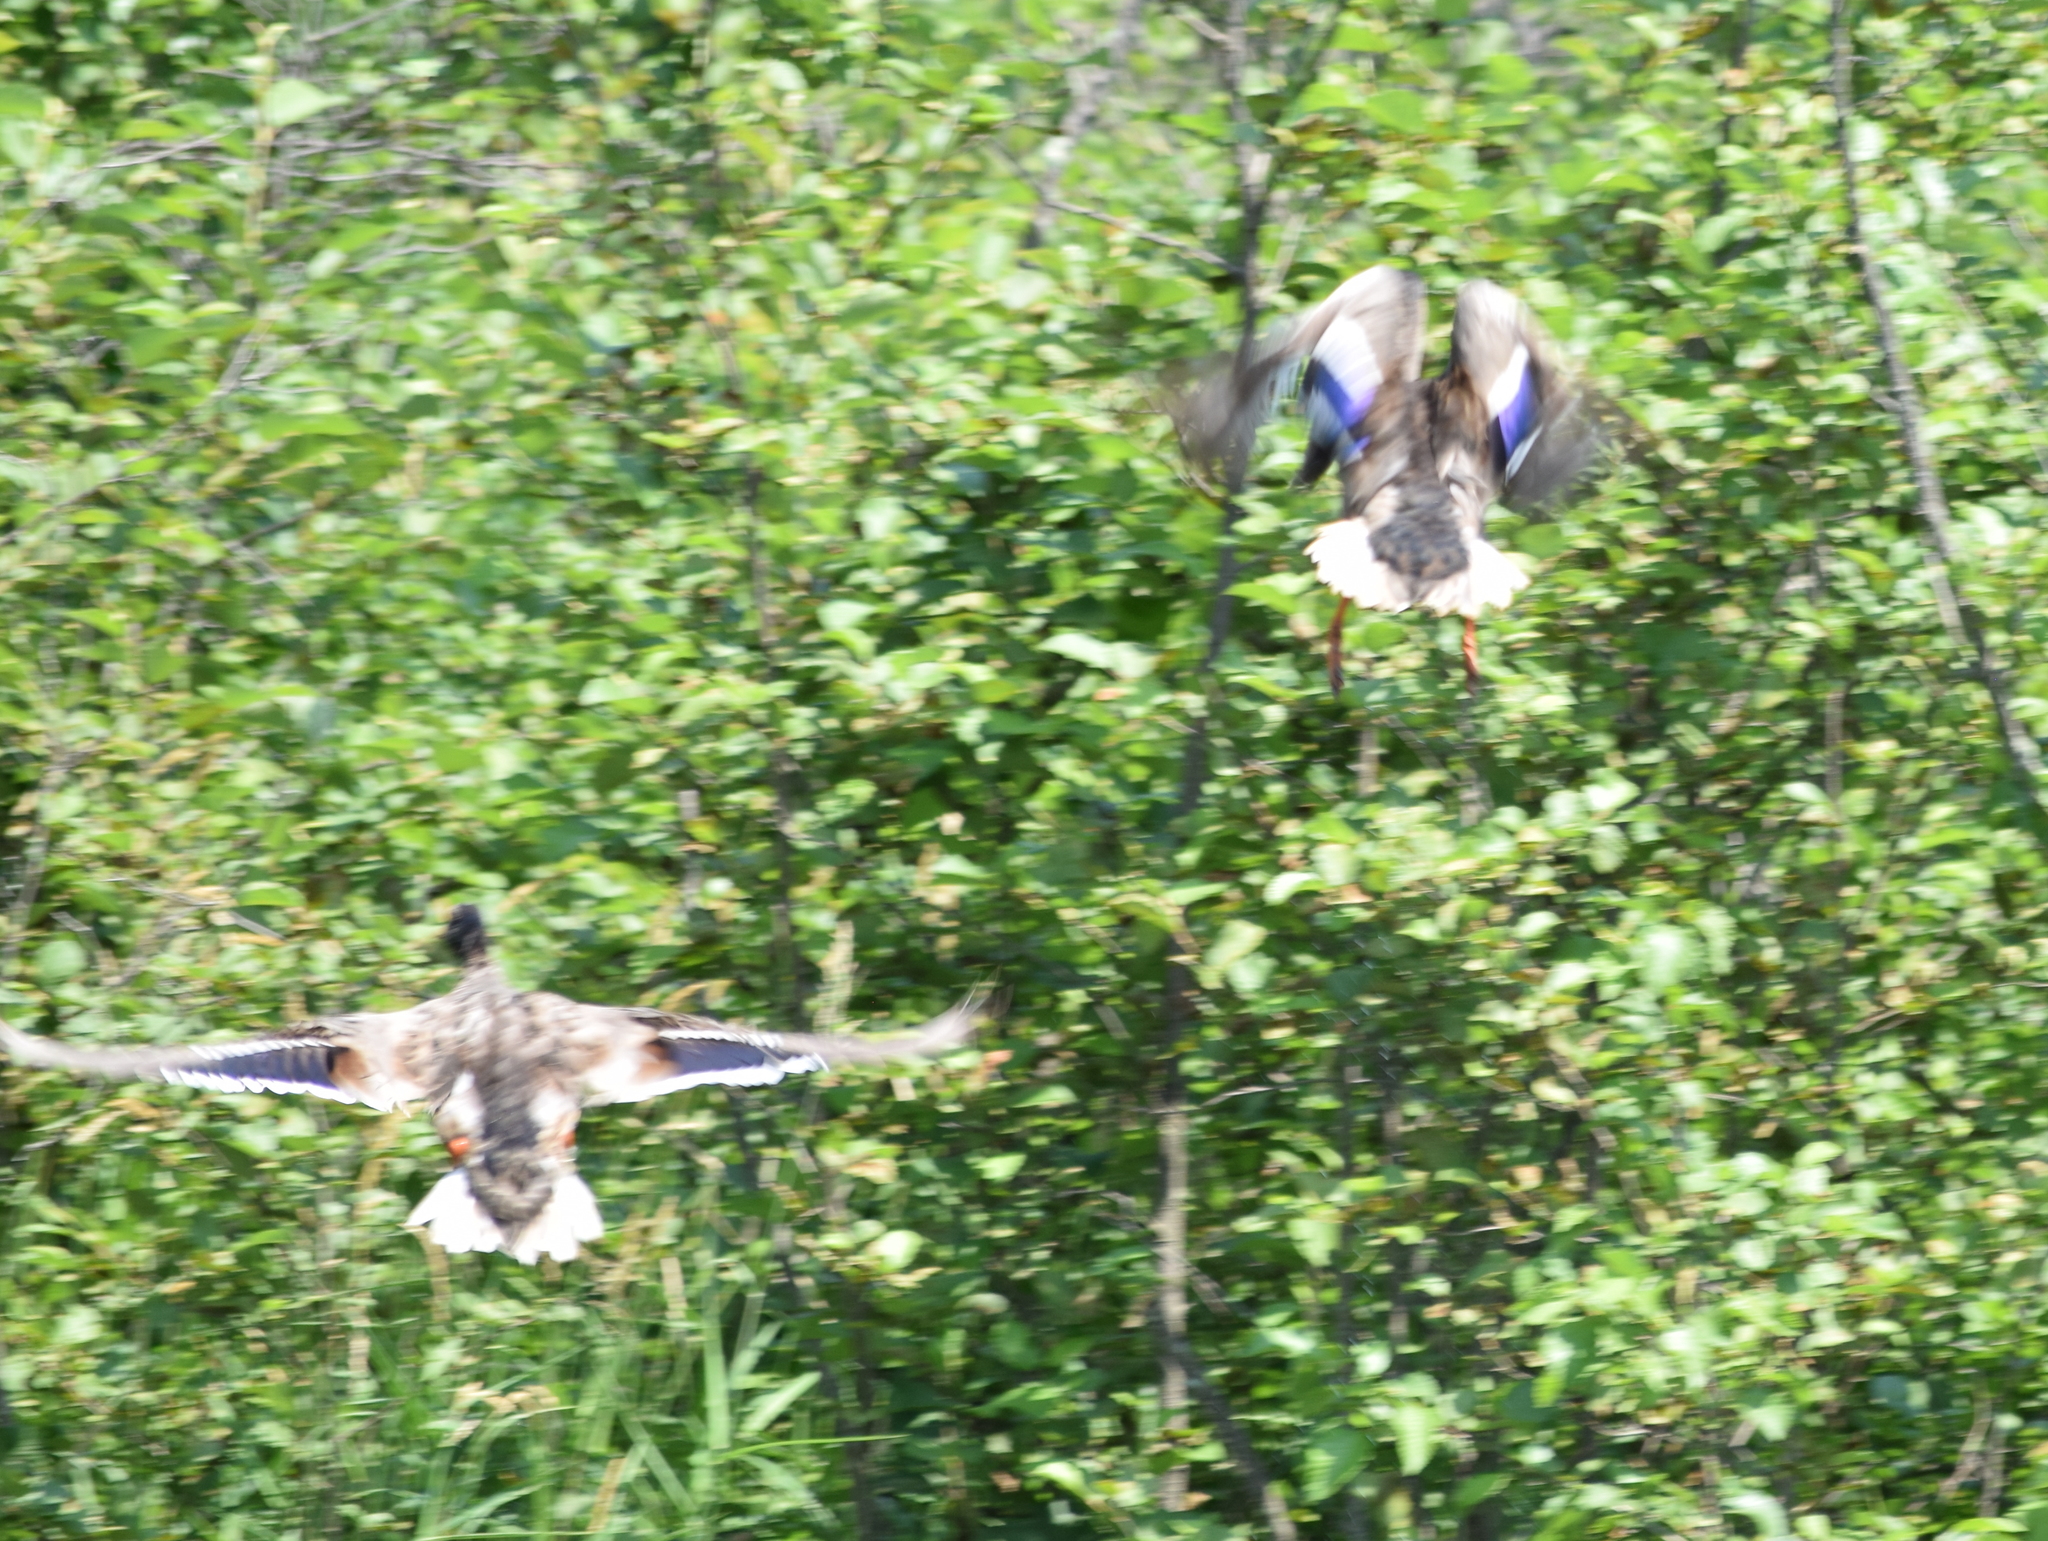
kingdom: Animalia
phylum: Chordata
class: Aves
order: Anseriformes
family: Anatidae
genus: Anas
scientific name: Anas platyrhynchos
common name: Mallard
